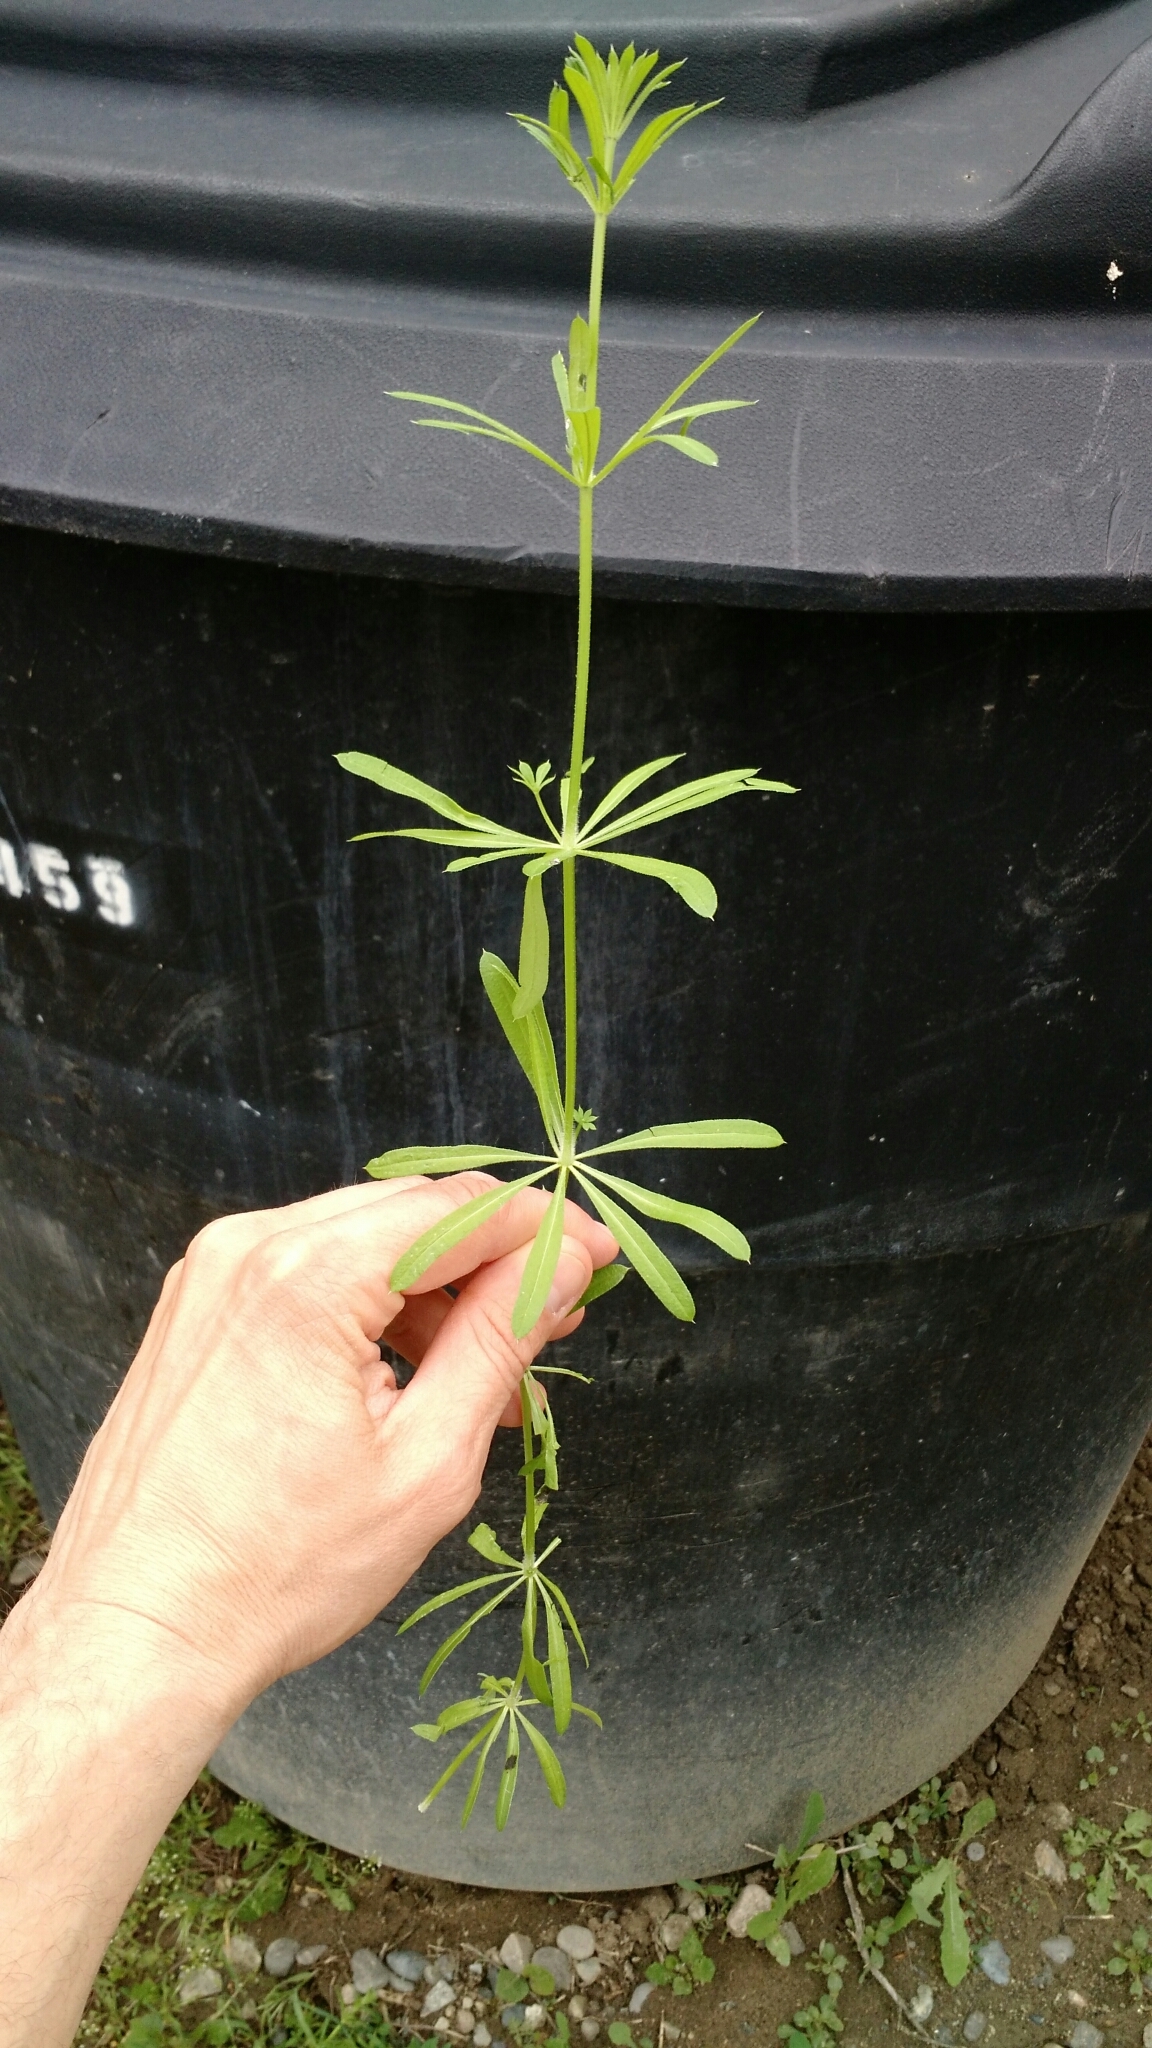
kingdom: Plantae
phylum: Tracheophyta
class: Magnoliopsida
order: Gentianales
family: Rubiaceae
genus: Galium
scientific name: Galium aparine
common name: Cleavers
